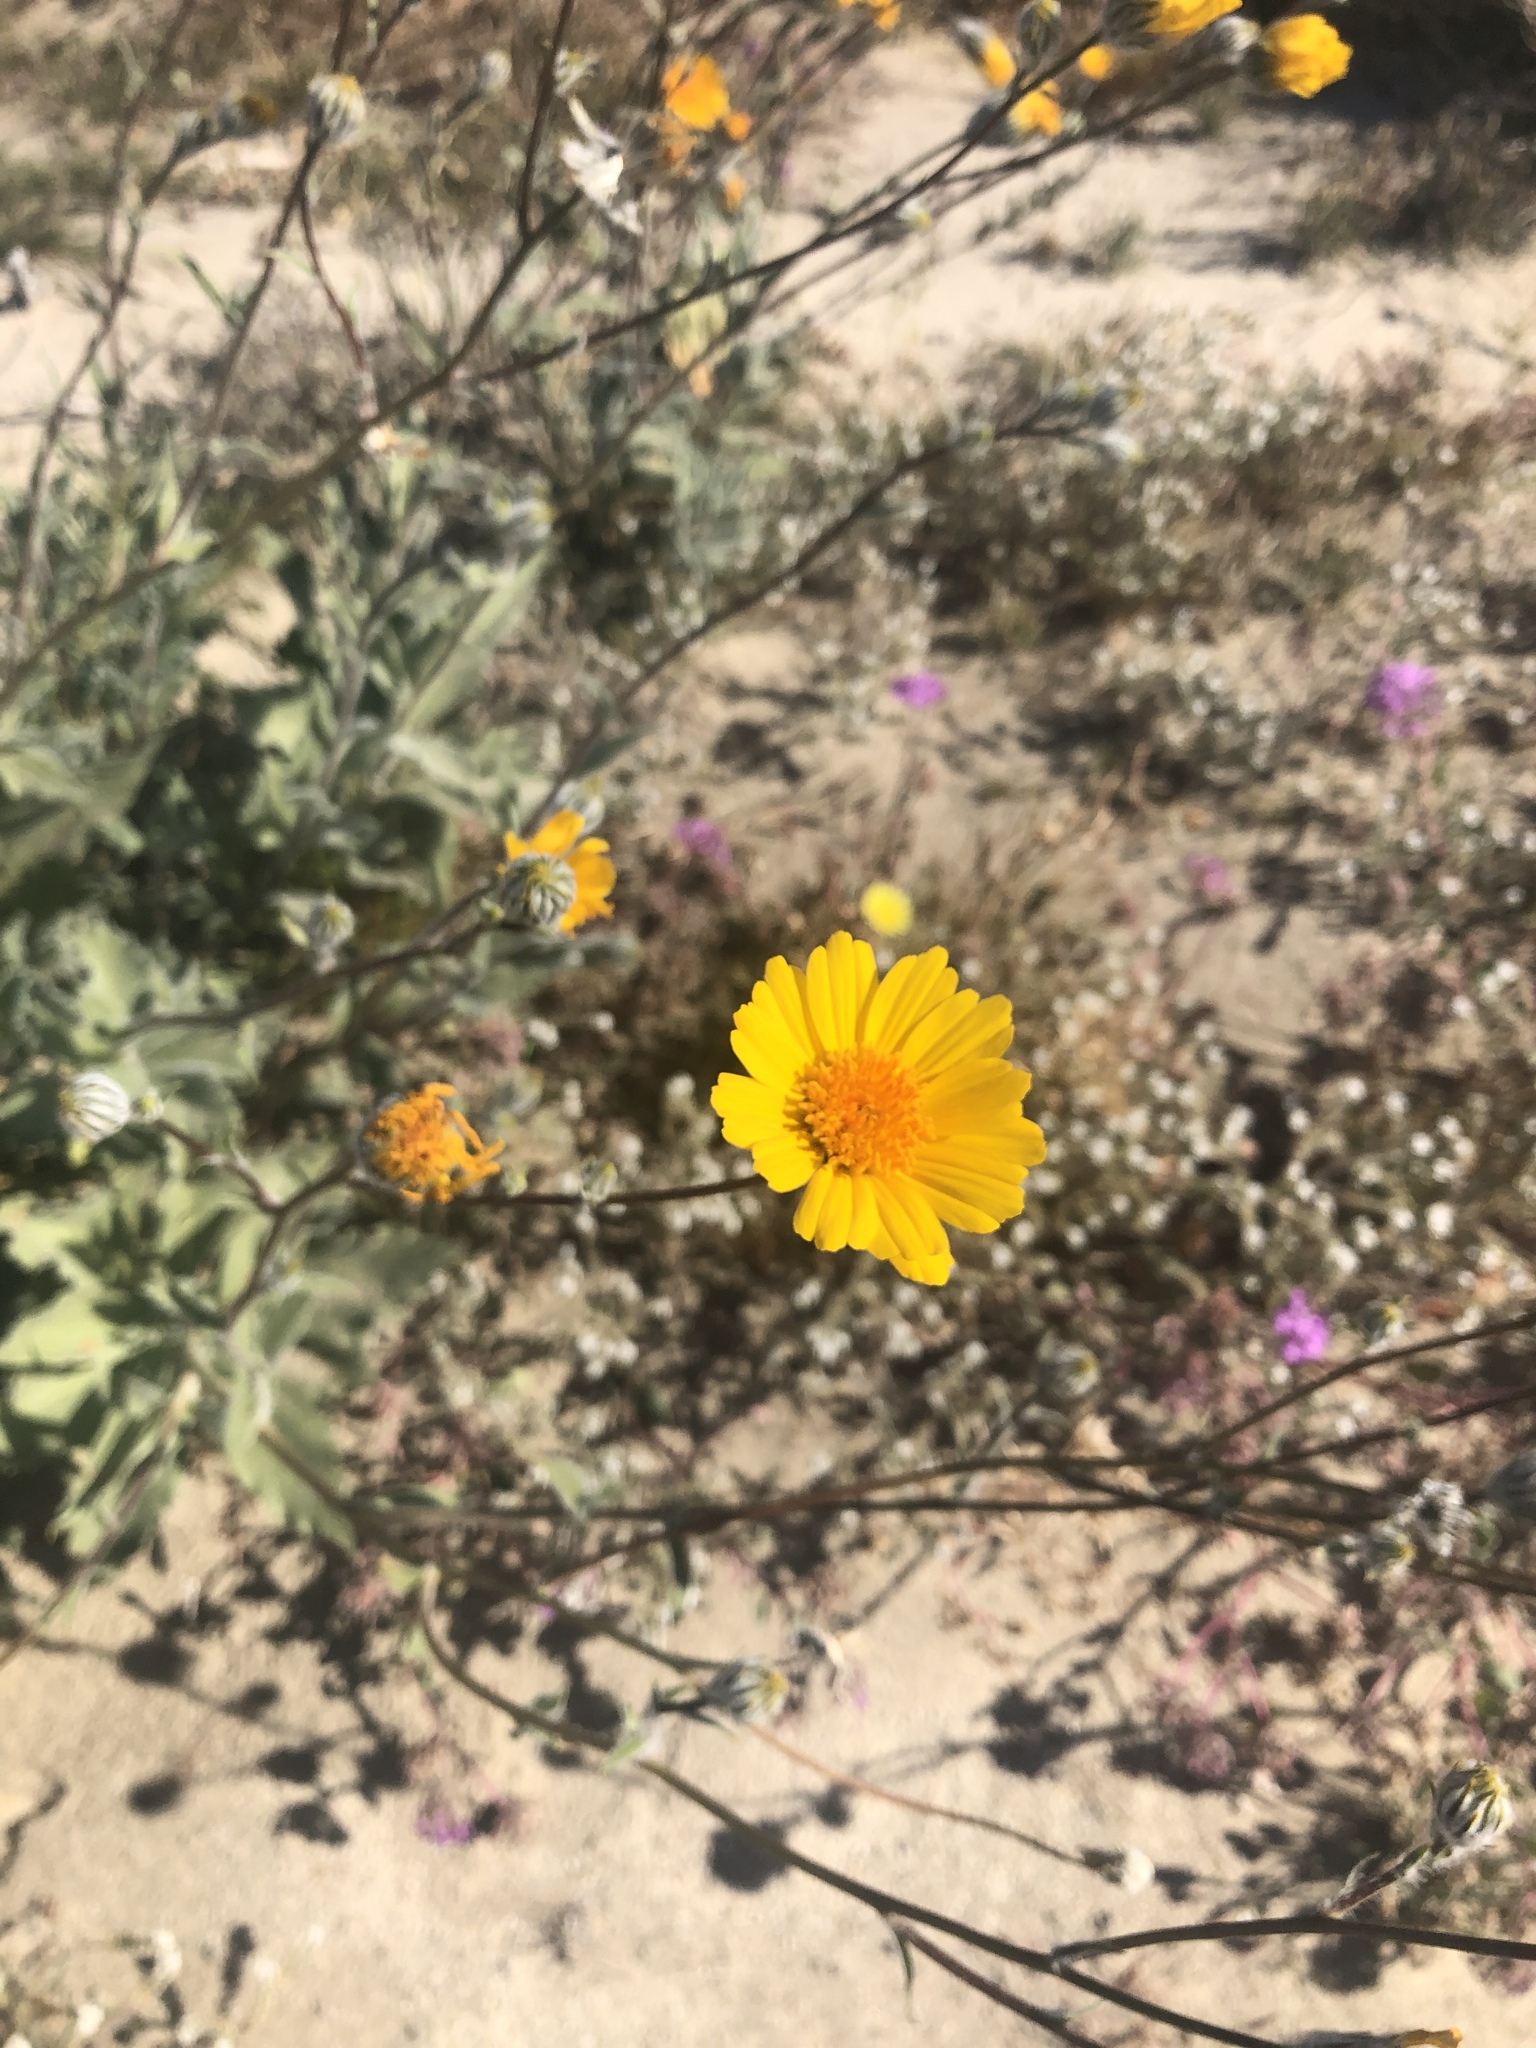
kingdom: Plantae
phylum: Tracheophyta
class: Magnoliopsida
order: Asterales
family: Asteraceae
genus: Geraea
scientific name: Geraea canescens
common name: Desert-gold
